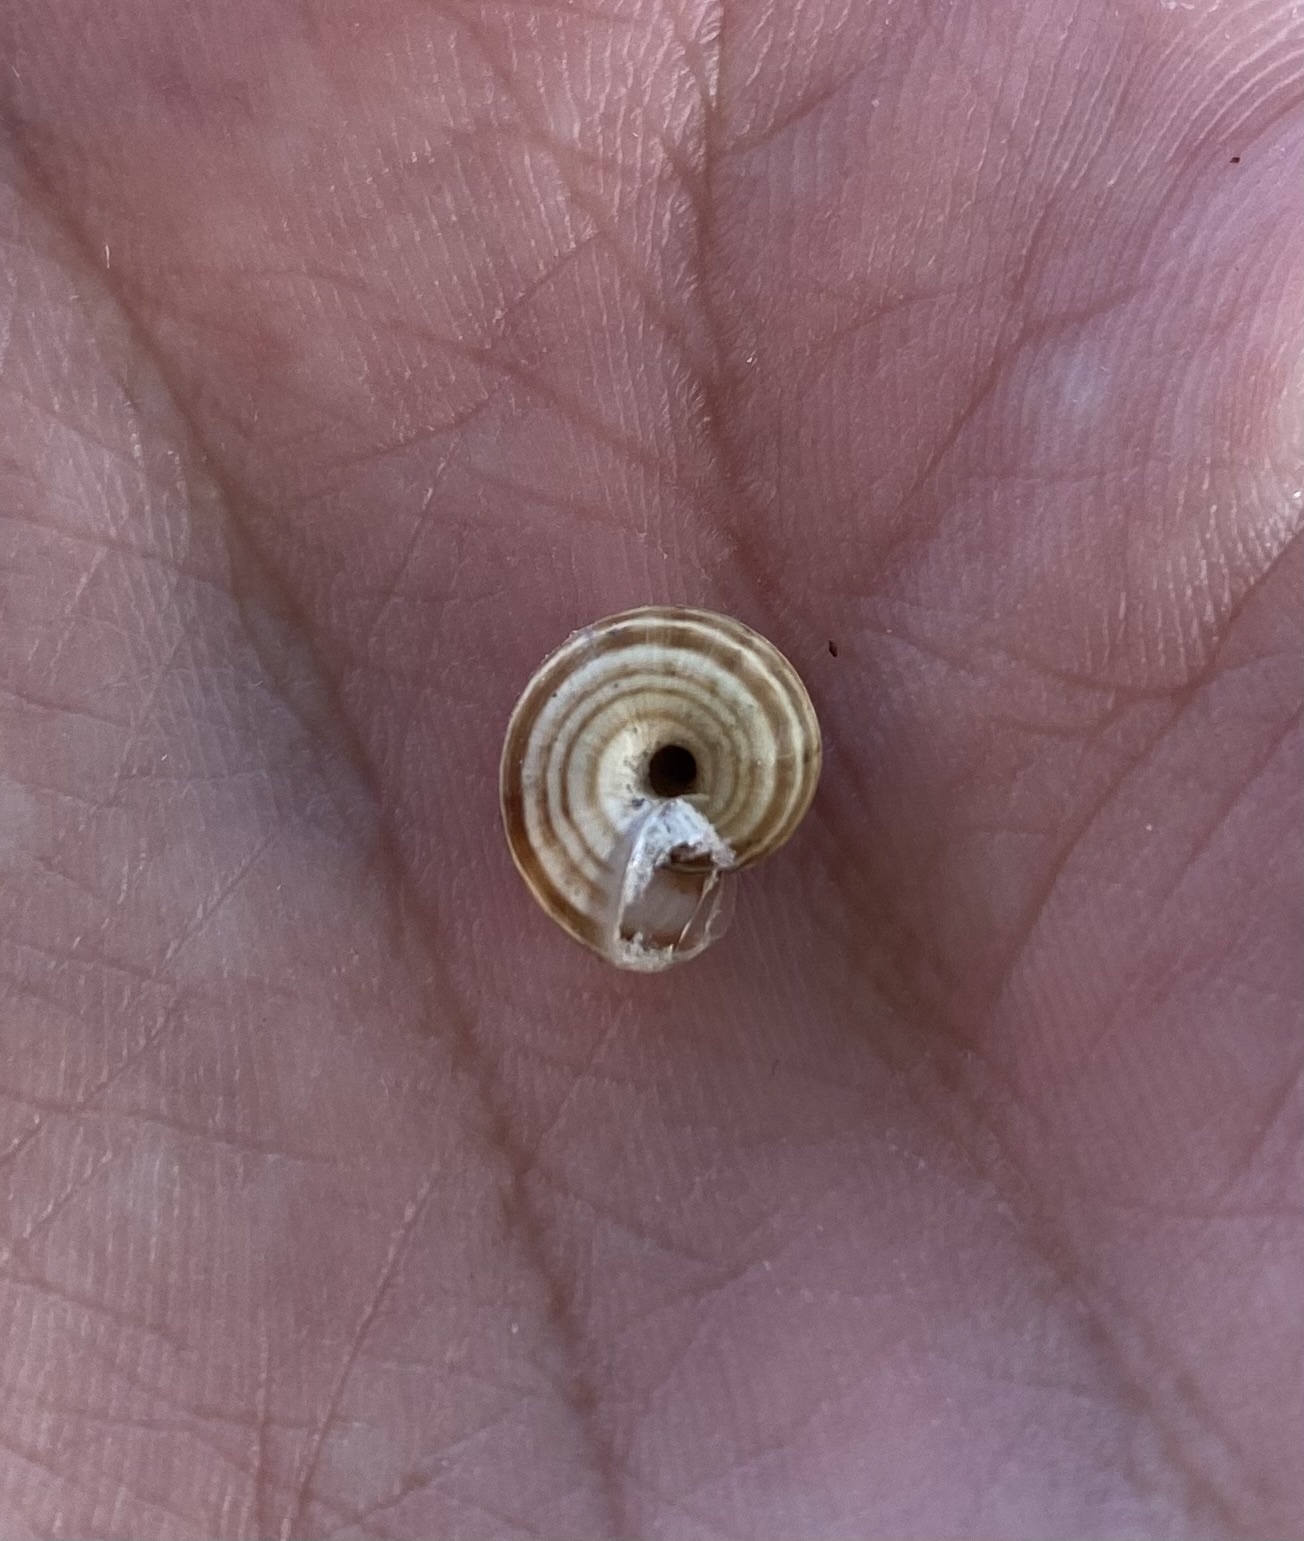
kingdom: Animalia
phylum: Mollusca
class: Gastropoda
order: Stylommatophora
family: Geomitridae
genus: Xeropicta
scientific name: Xeropicta derbentina
